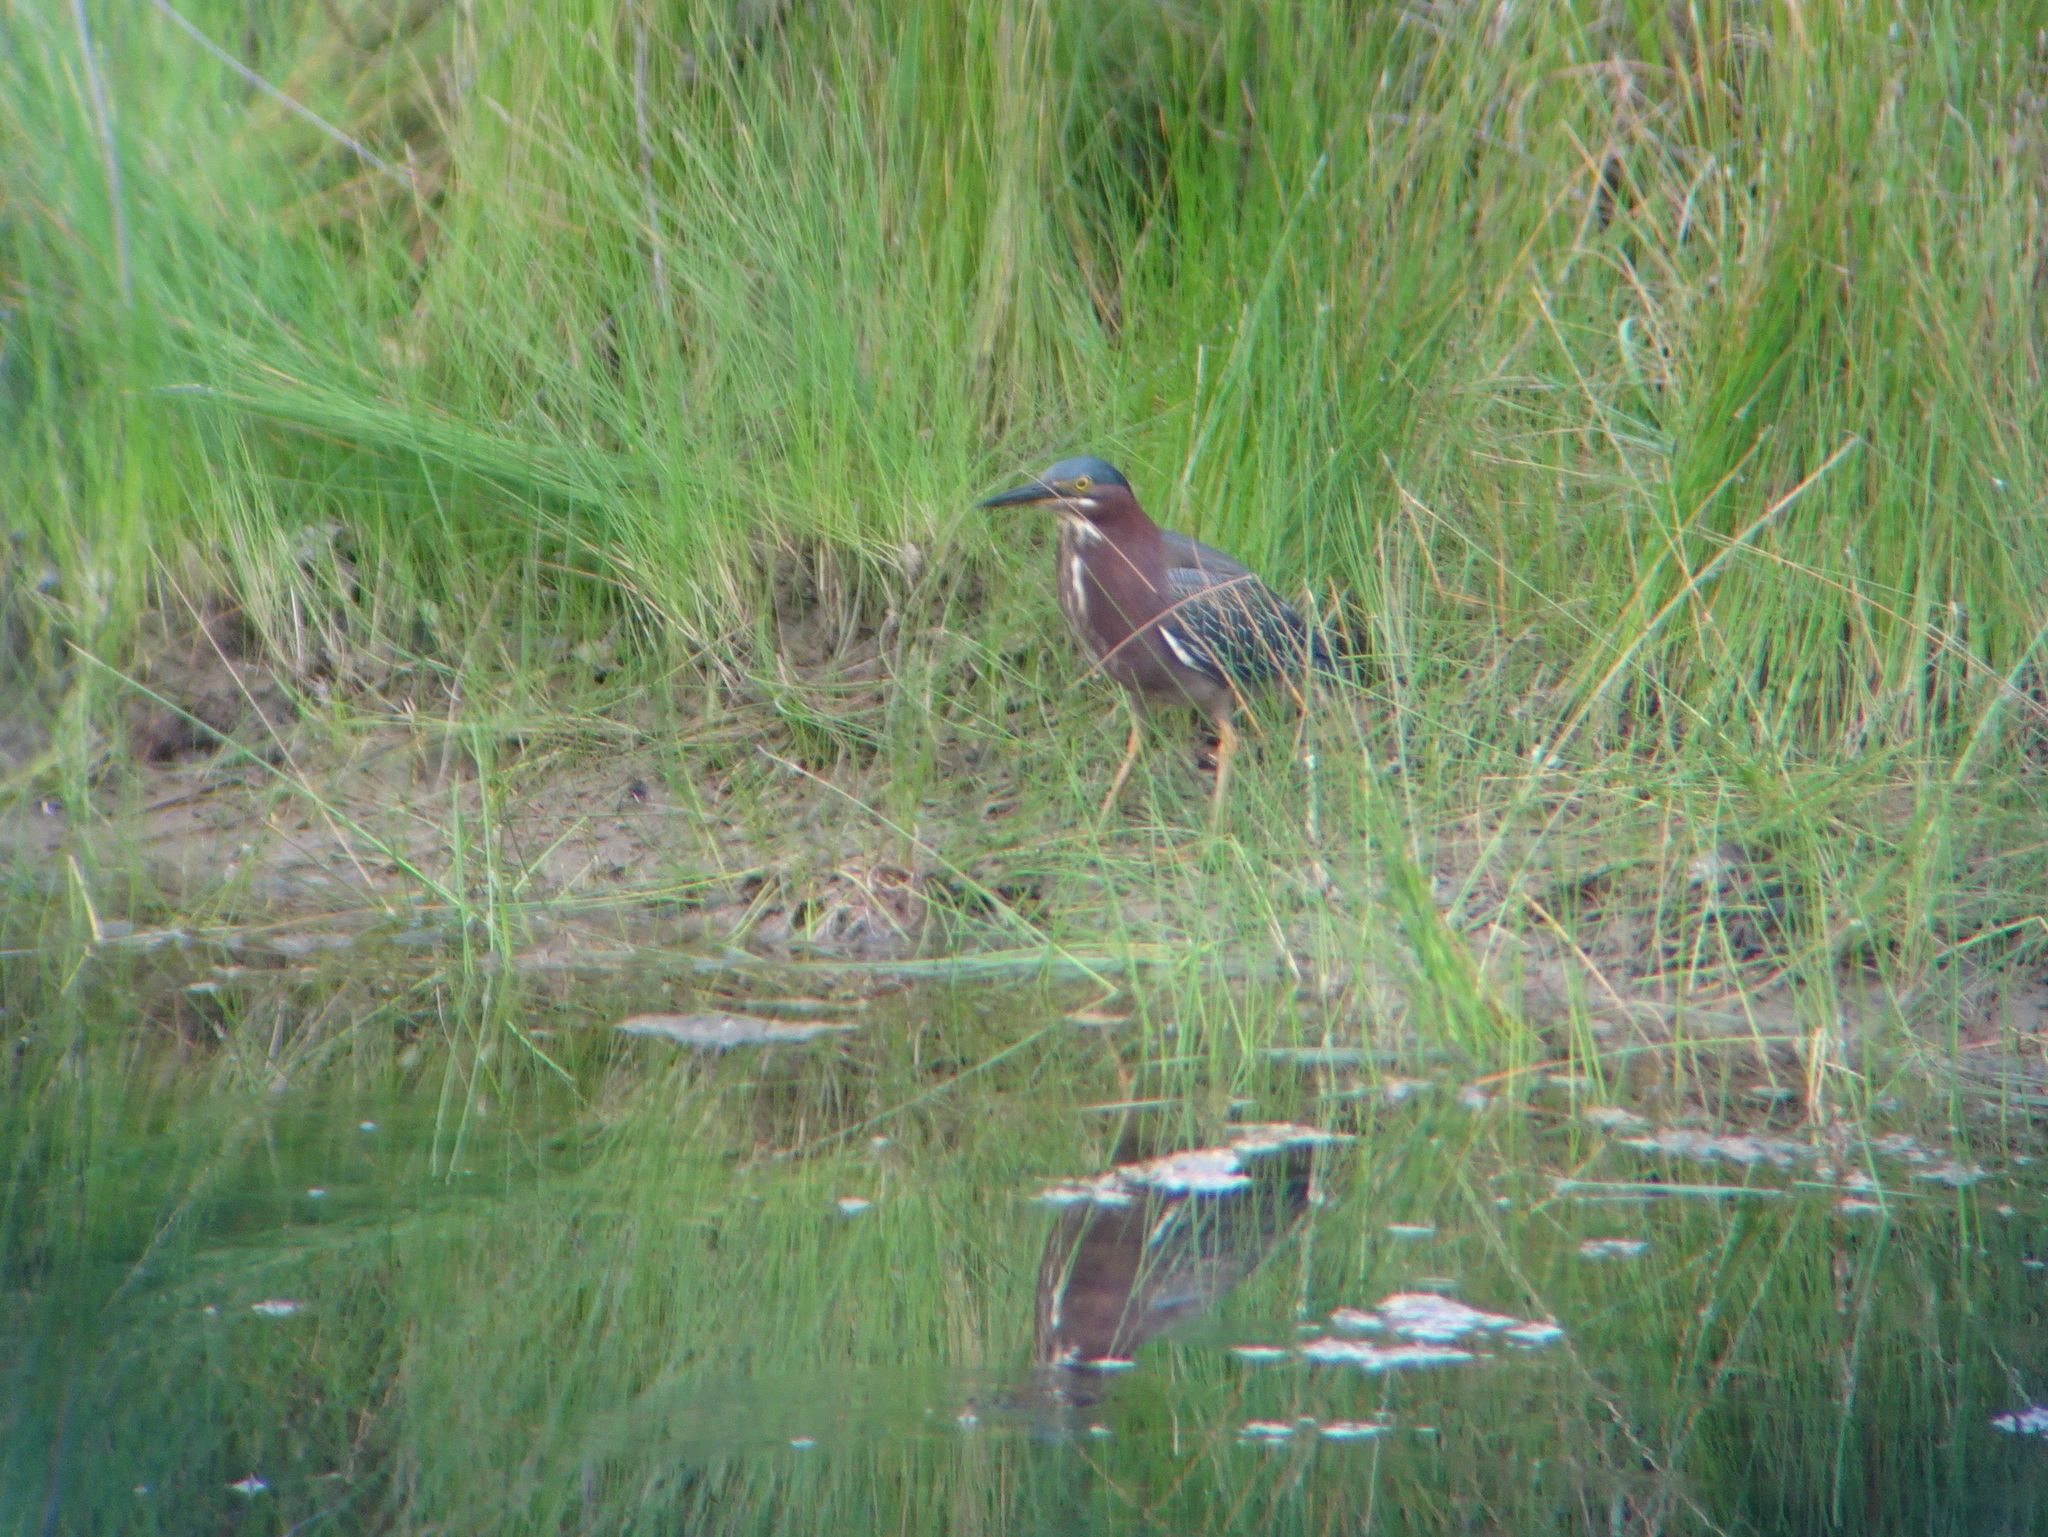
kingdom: Animalia
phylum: Chordata
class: Aves
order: Pelecaniformes
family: Ardeidae
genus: Butorides
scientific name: Butorides virescens
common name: Green heron
